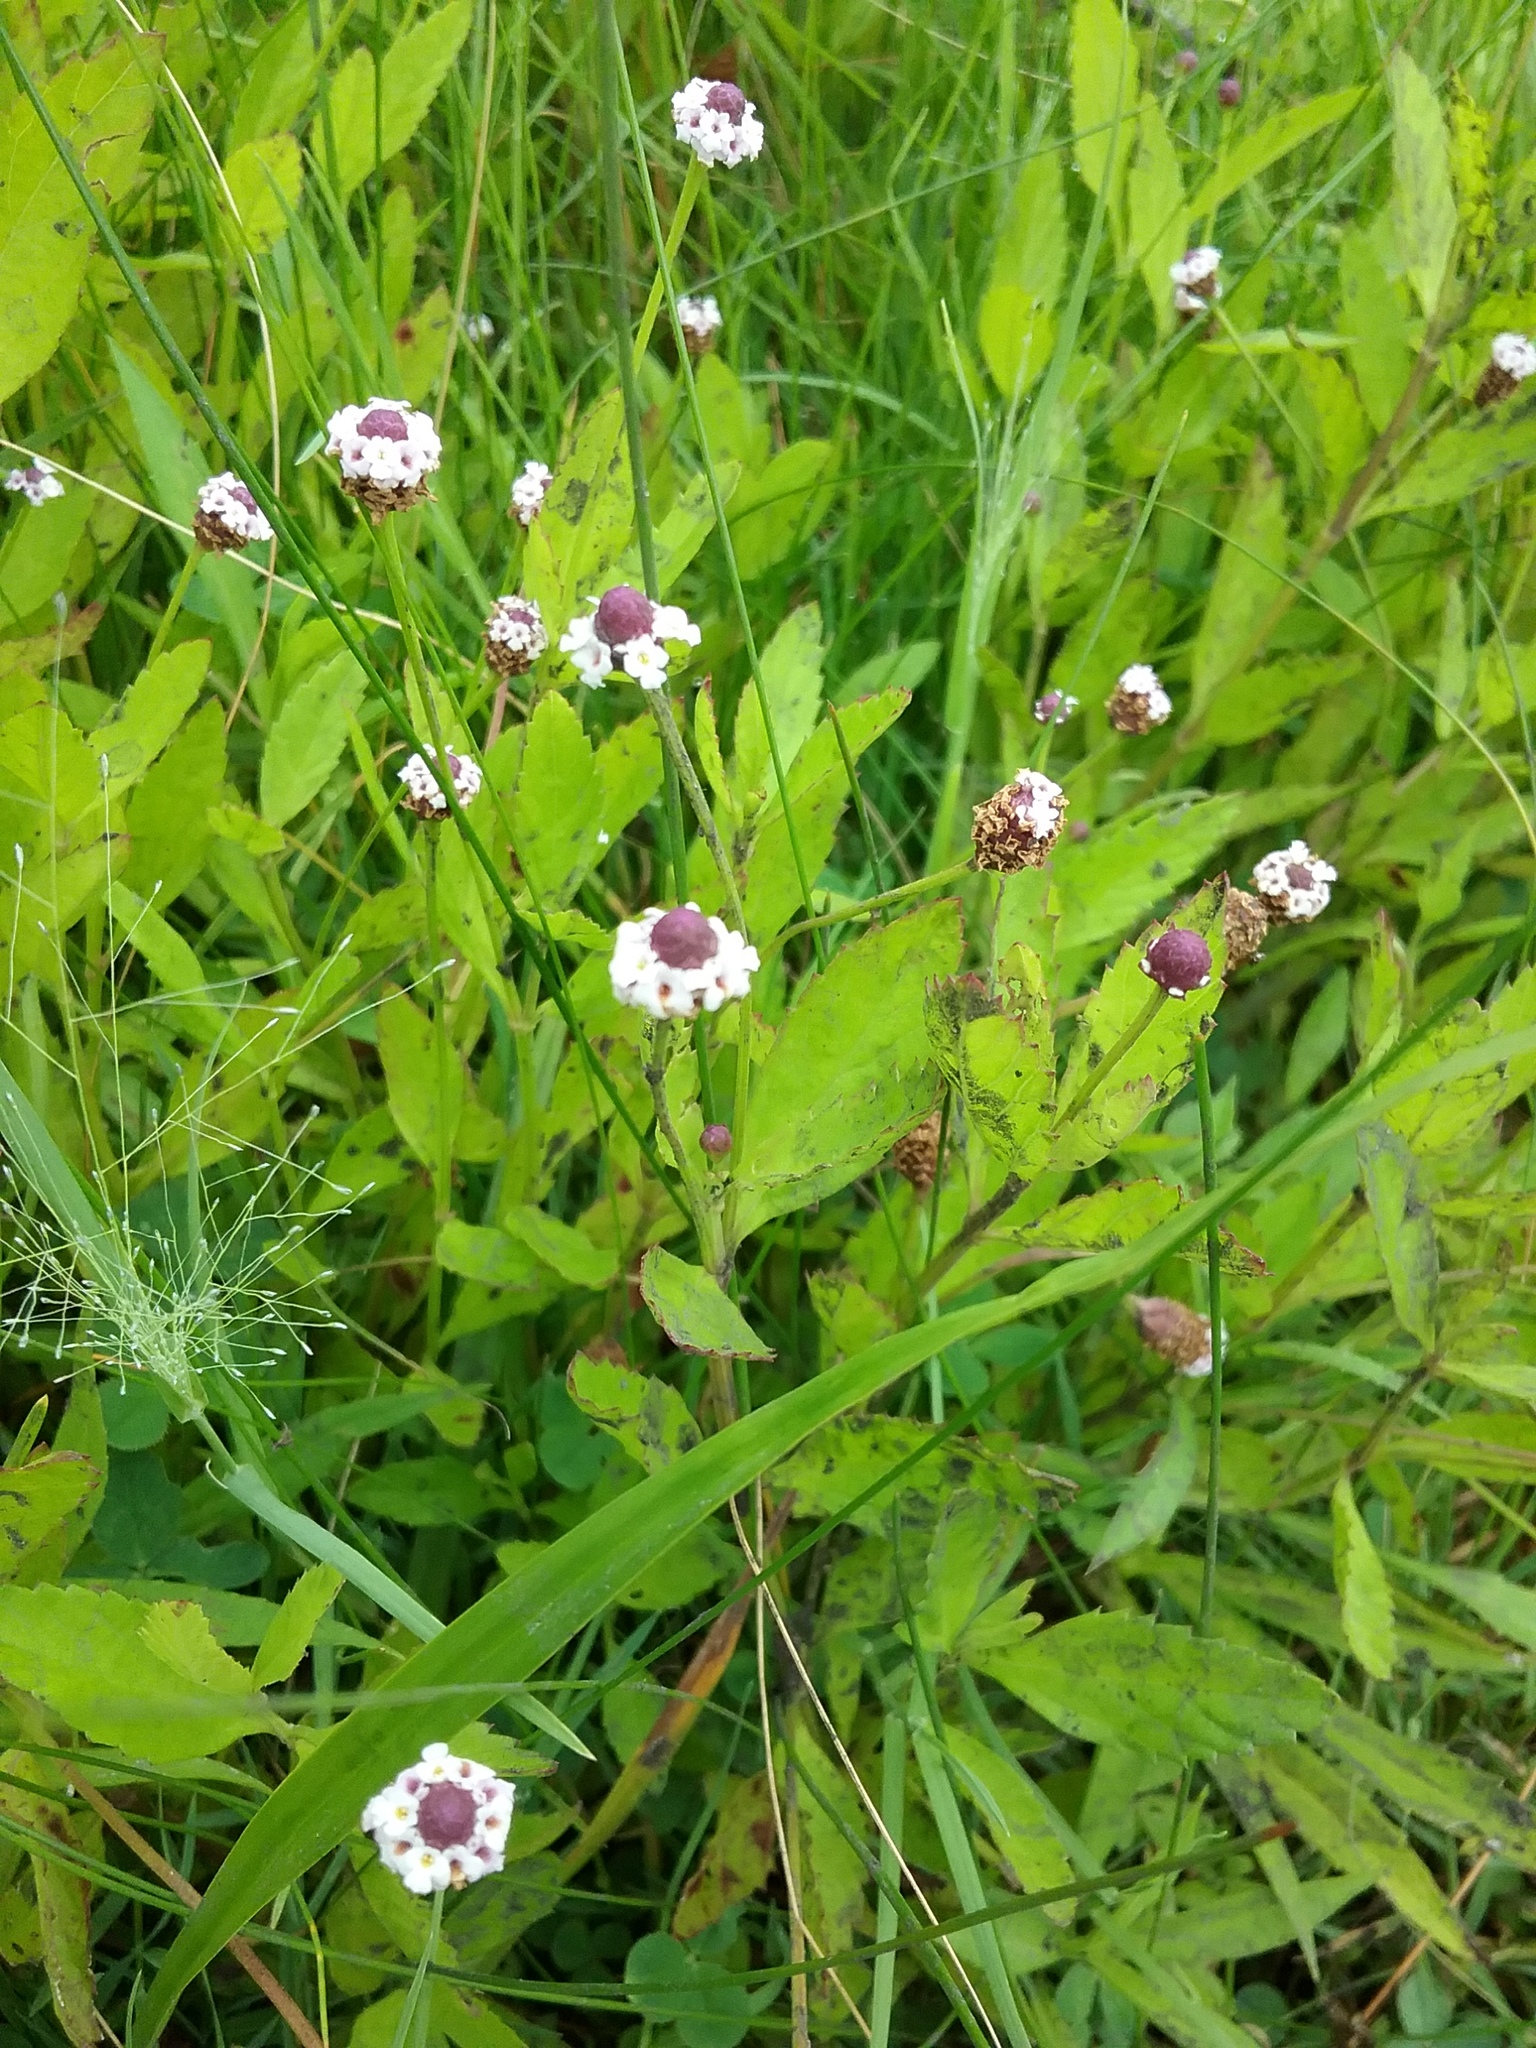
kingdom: Plantae
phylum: Tracheophyta
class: Magnoliopsida
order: Lamiales
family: Verbenaceae
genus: Phyla
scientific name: Phyla lanceolata
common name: Northern fogfruit
